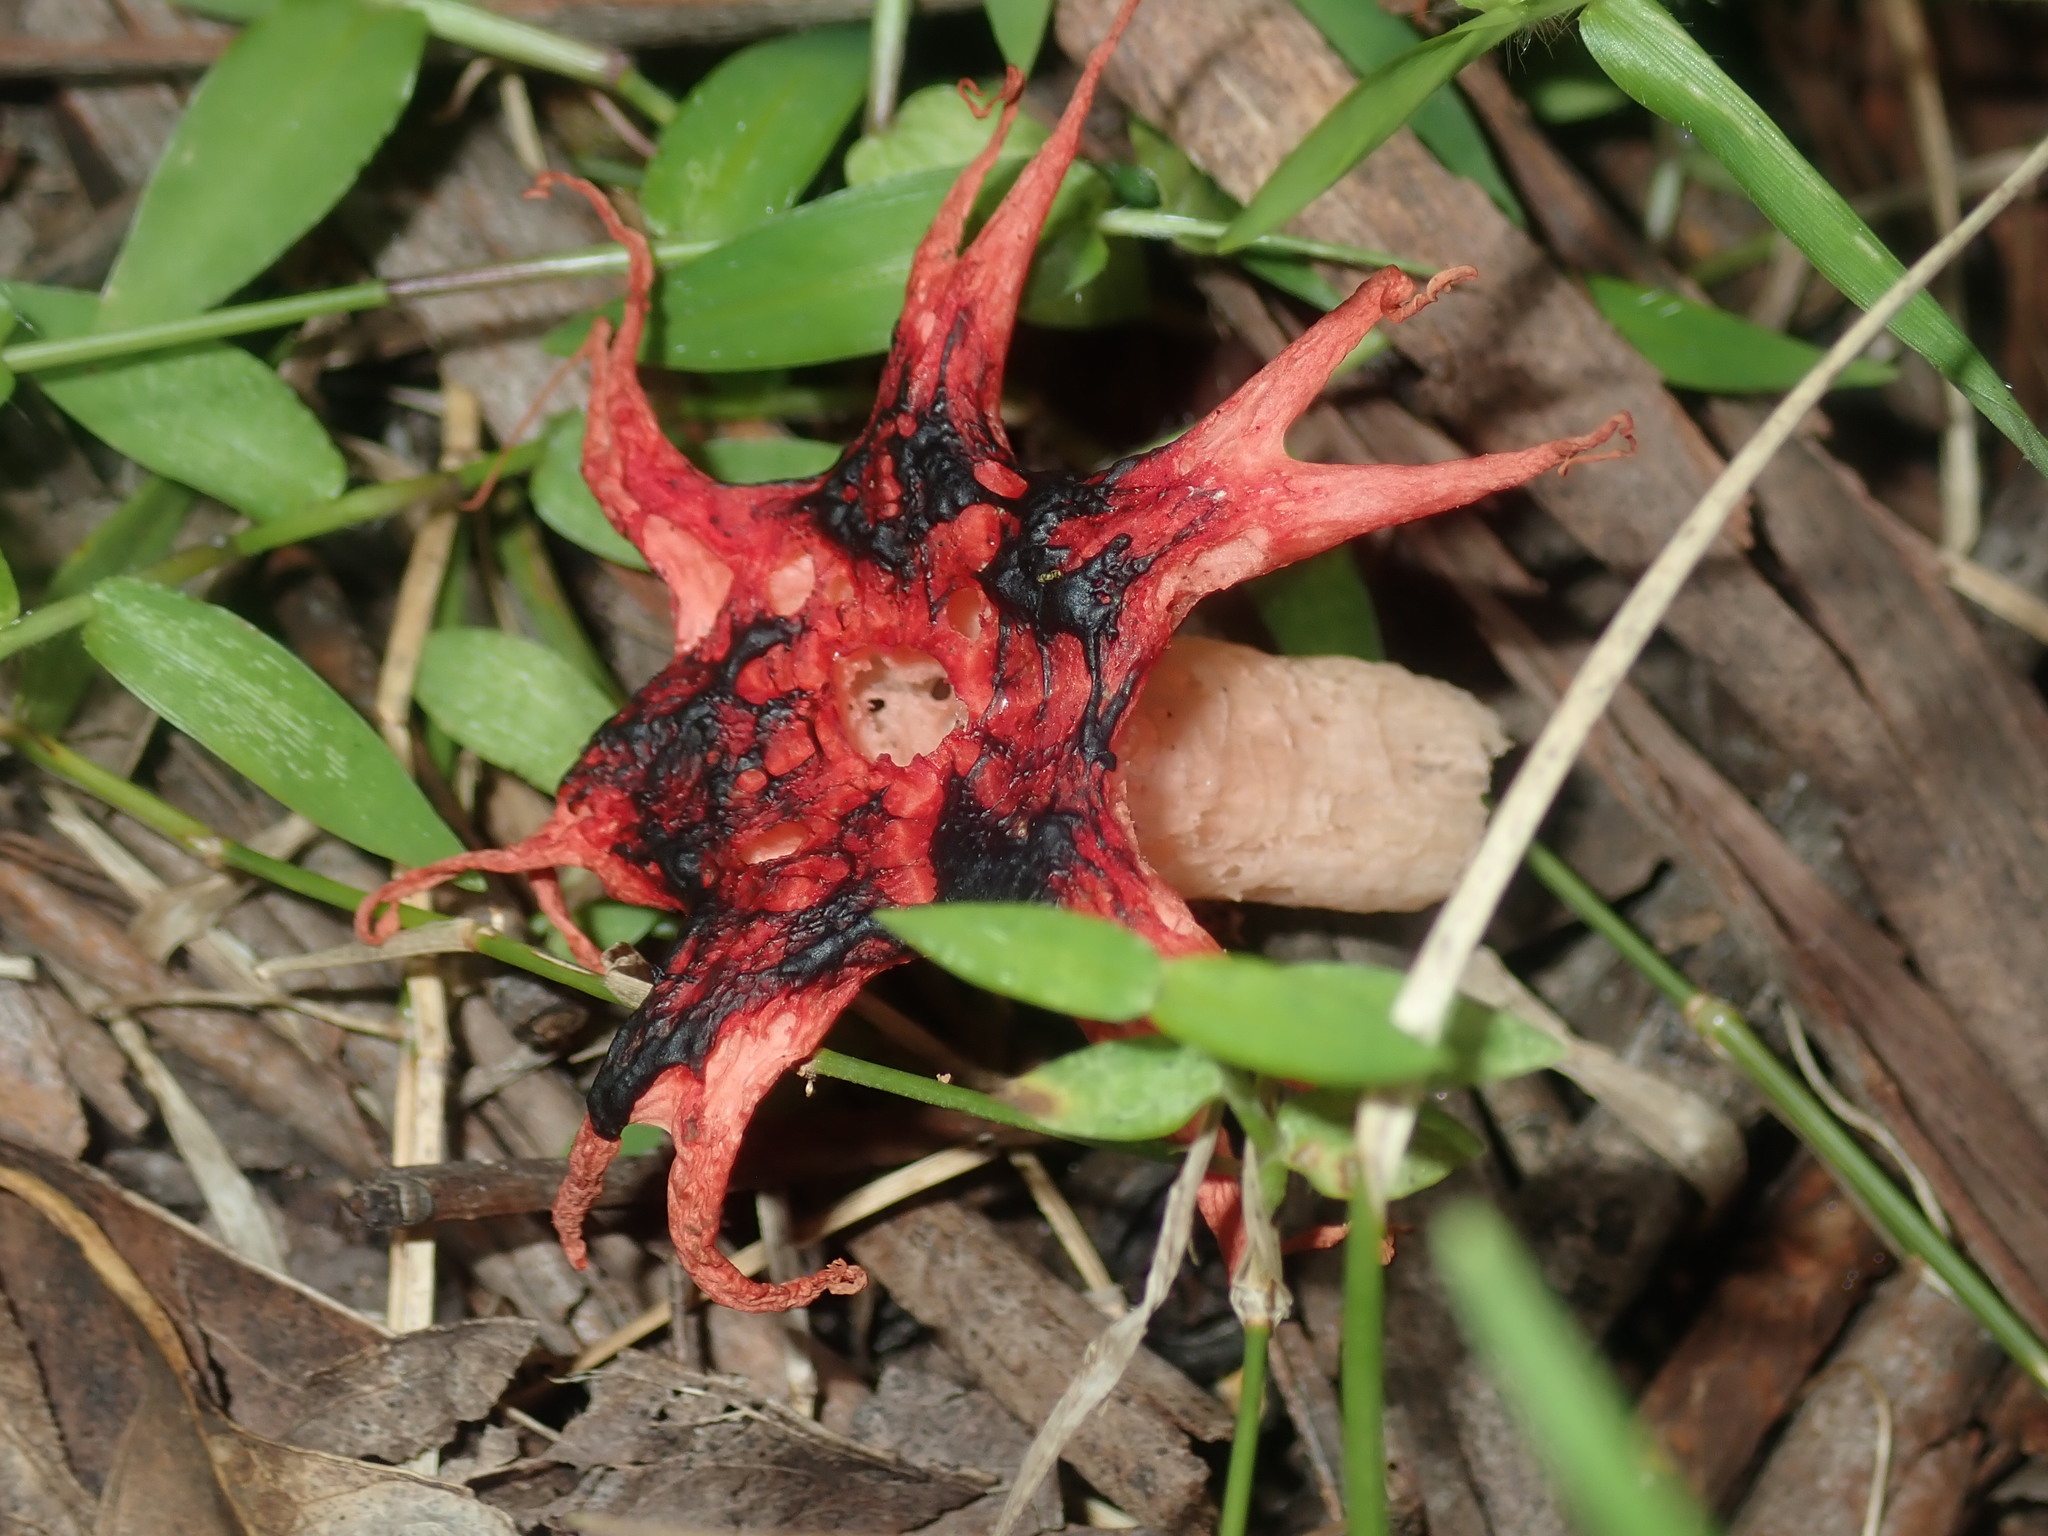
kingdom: Fungi
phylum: Basidiomycota
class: Agaricomycetes
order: Phallales
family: Phallaceae
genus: Aseroe
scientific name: Aseroe rubra
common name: Starfish fungus
